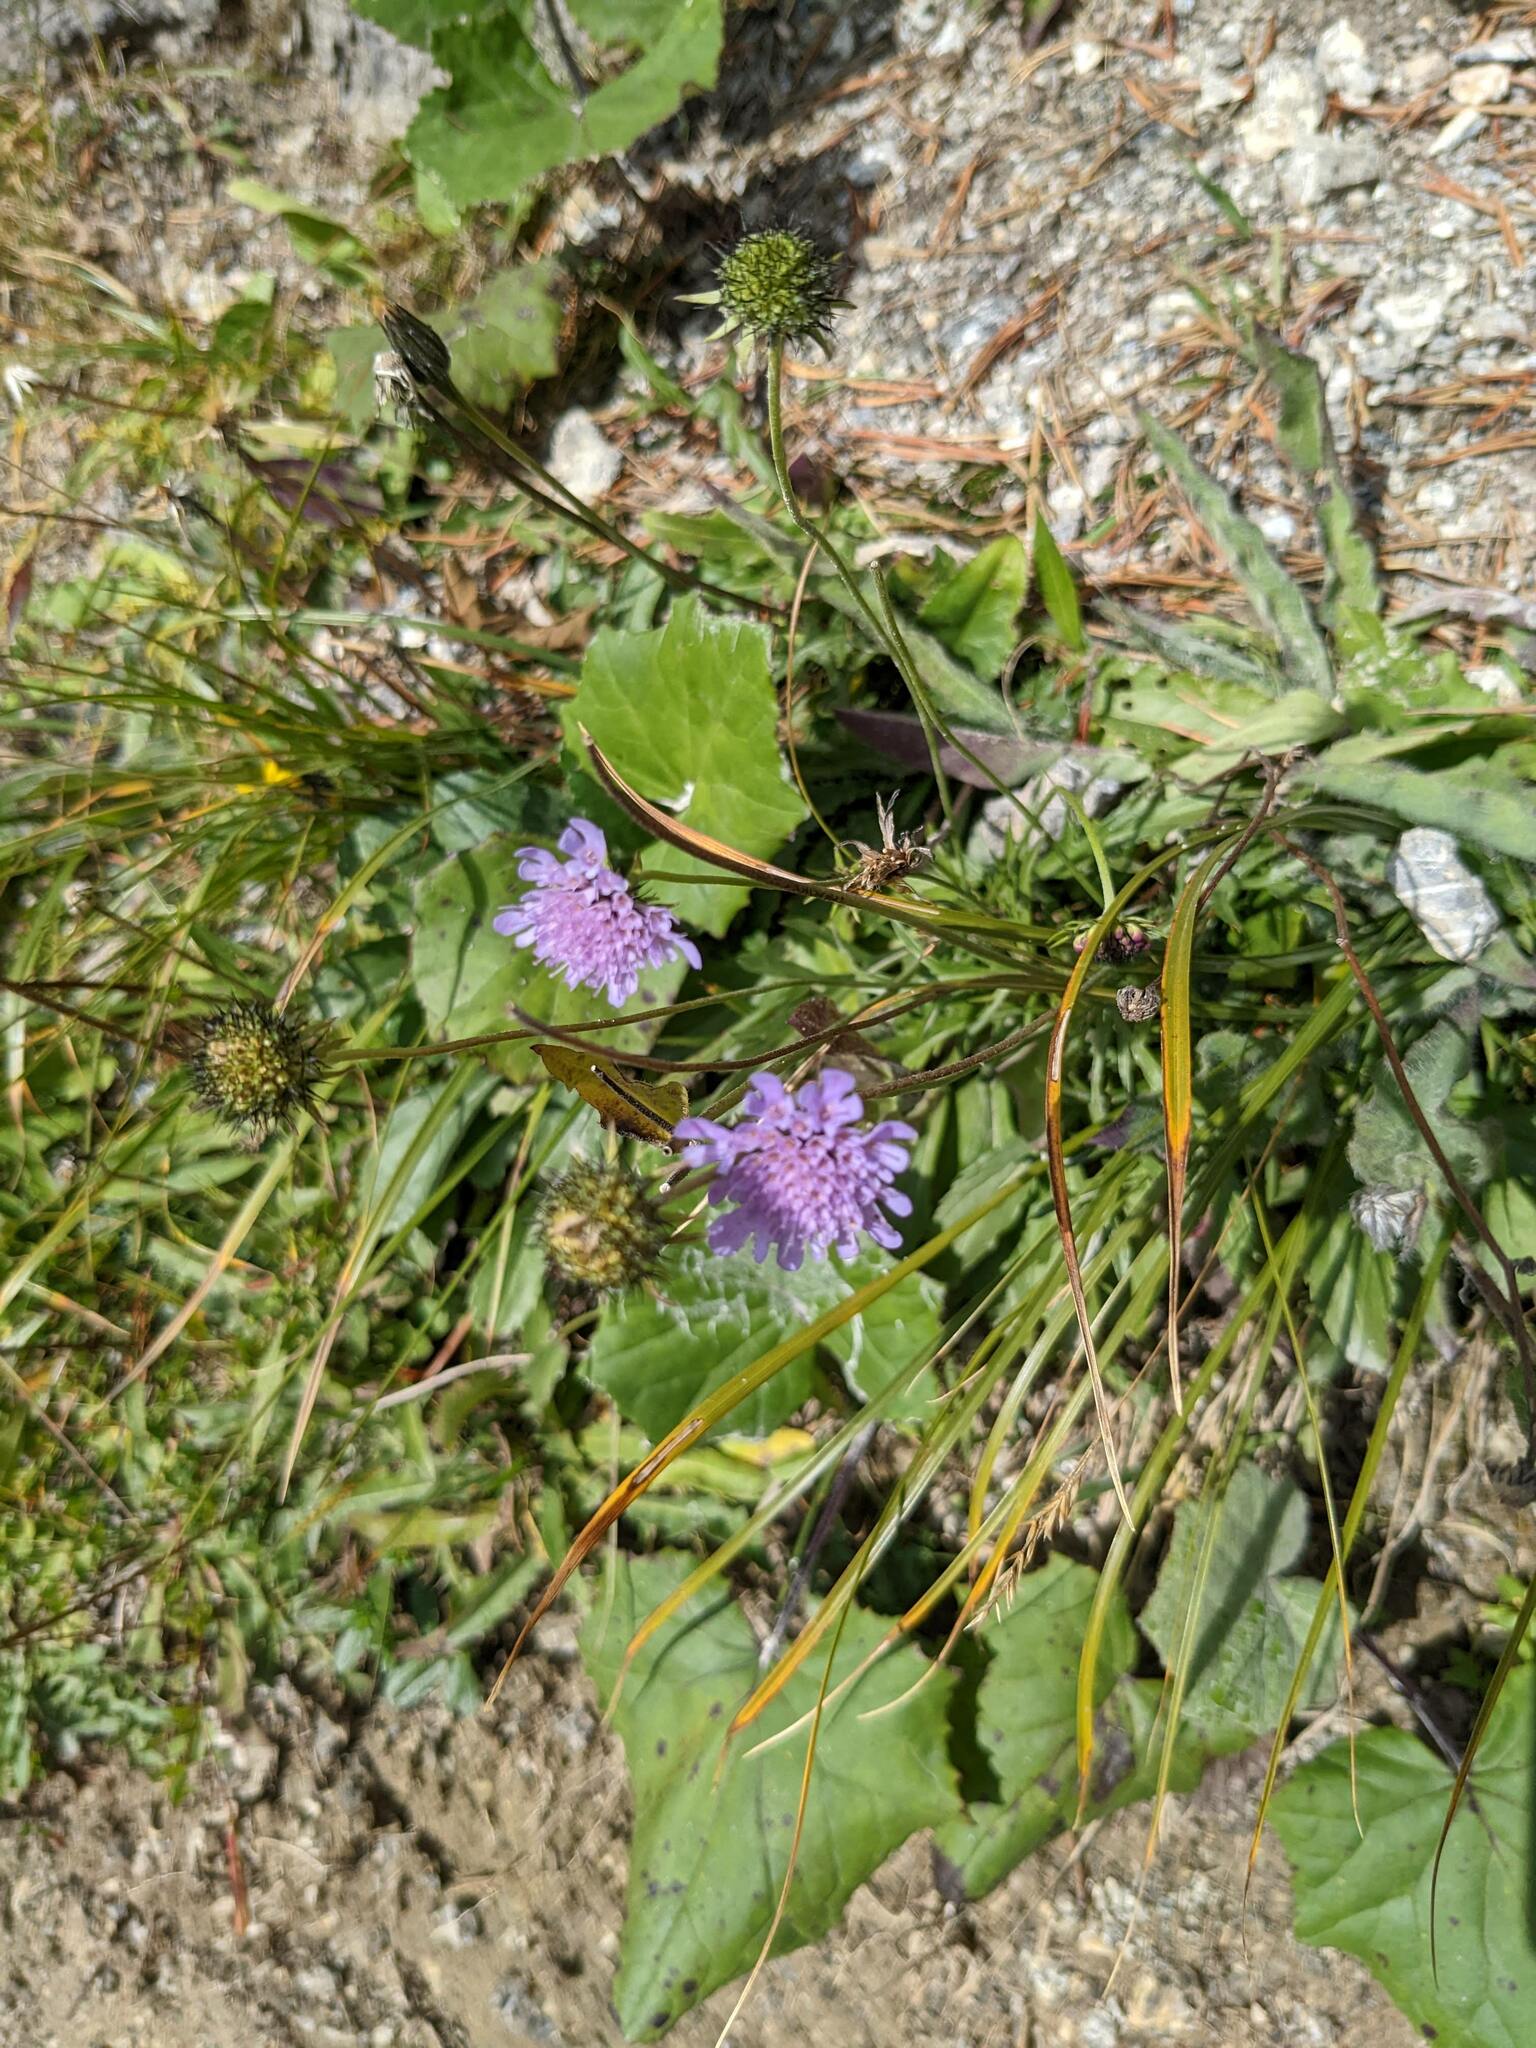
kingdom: Plantae
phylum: Tracheophyta
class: Magnoliopsida
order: Dipsacales
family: Caprifoliaceae
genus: Scabiosa
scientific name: Scabiosa lucida
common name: Shining scabious
